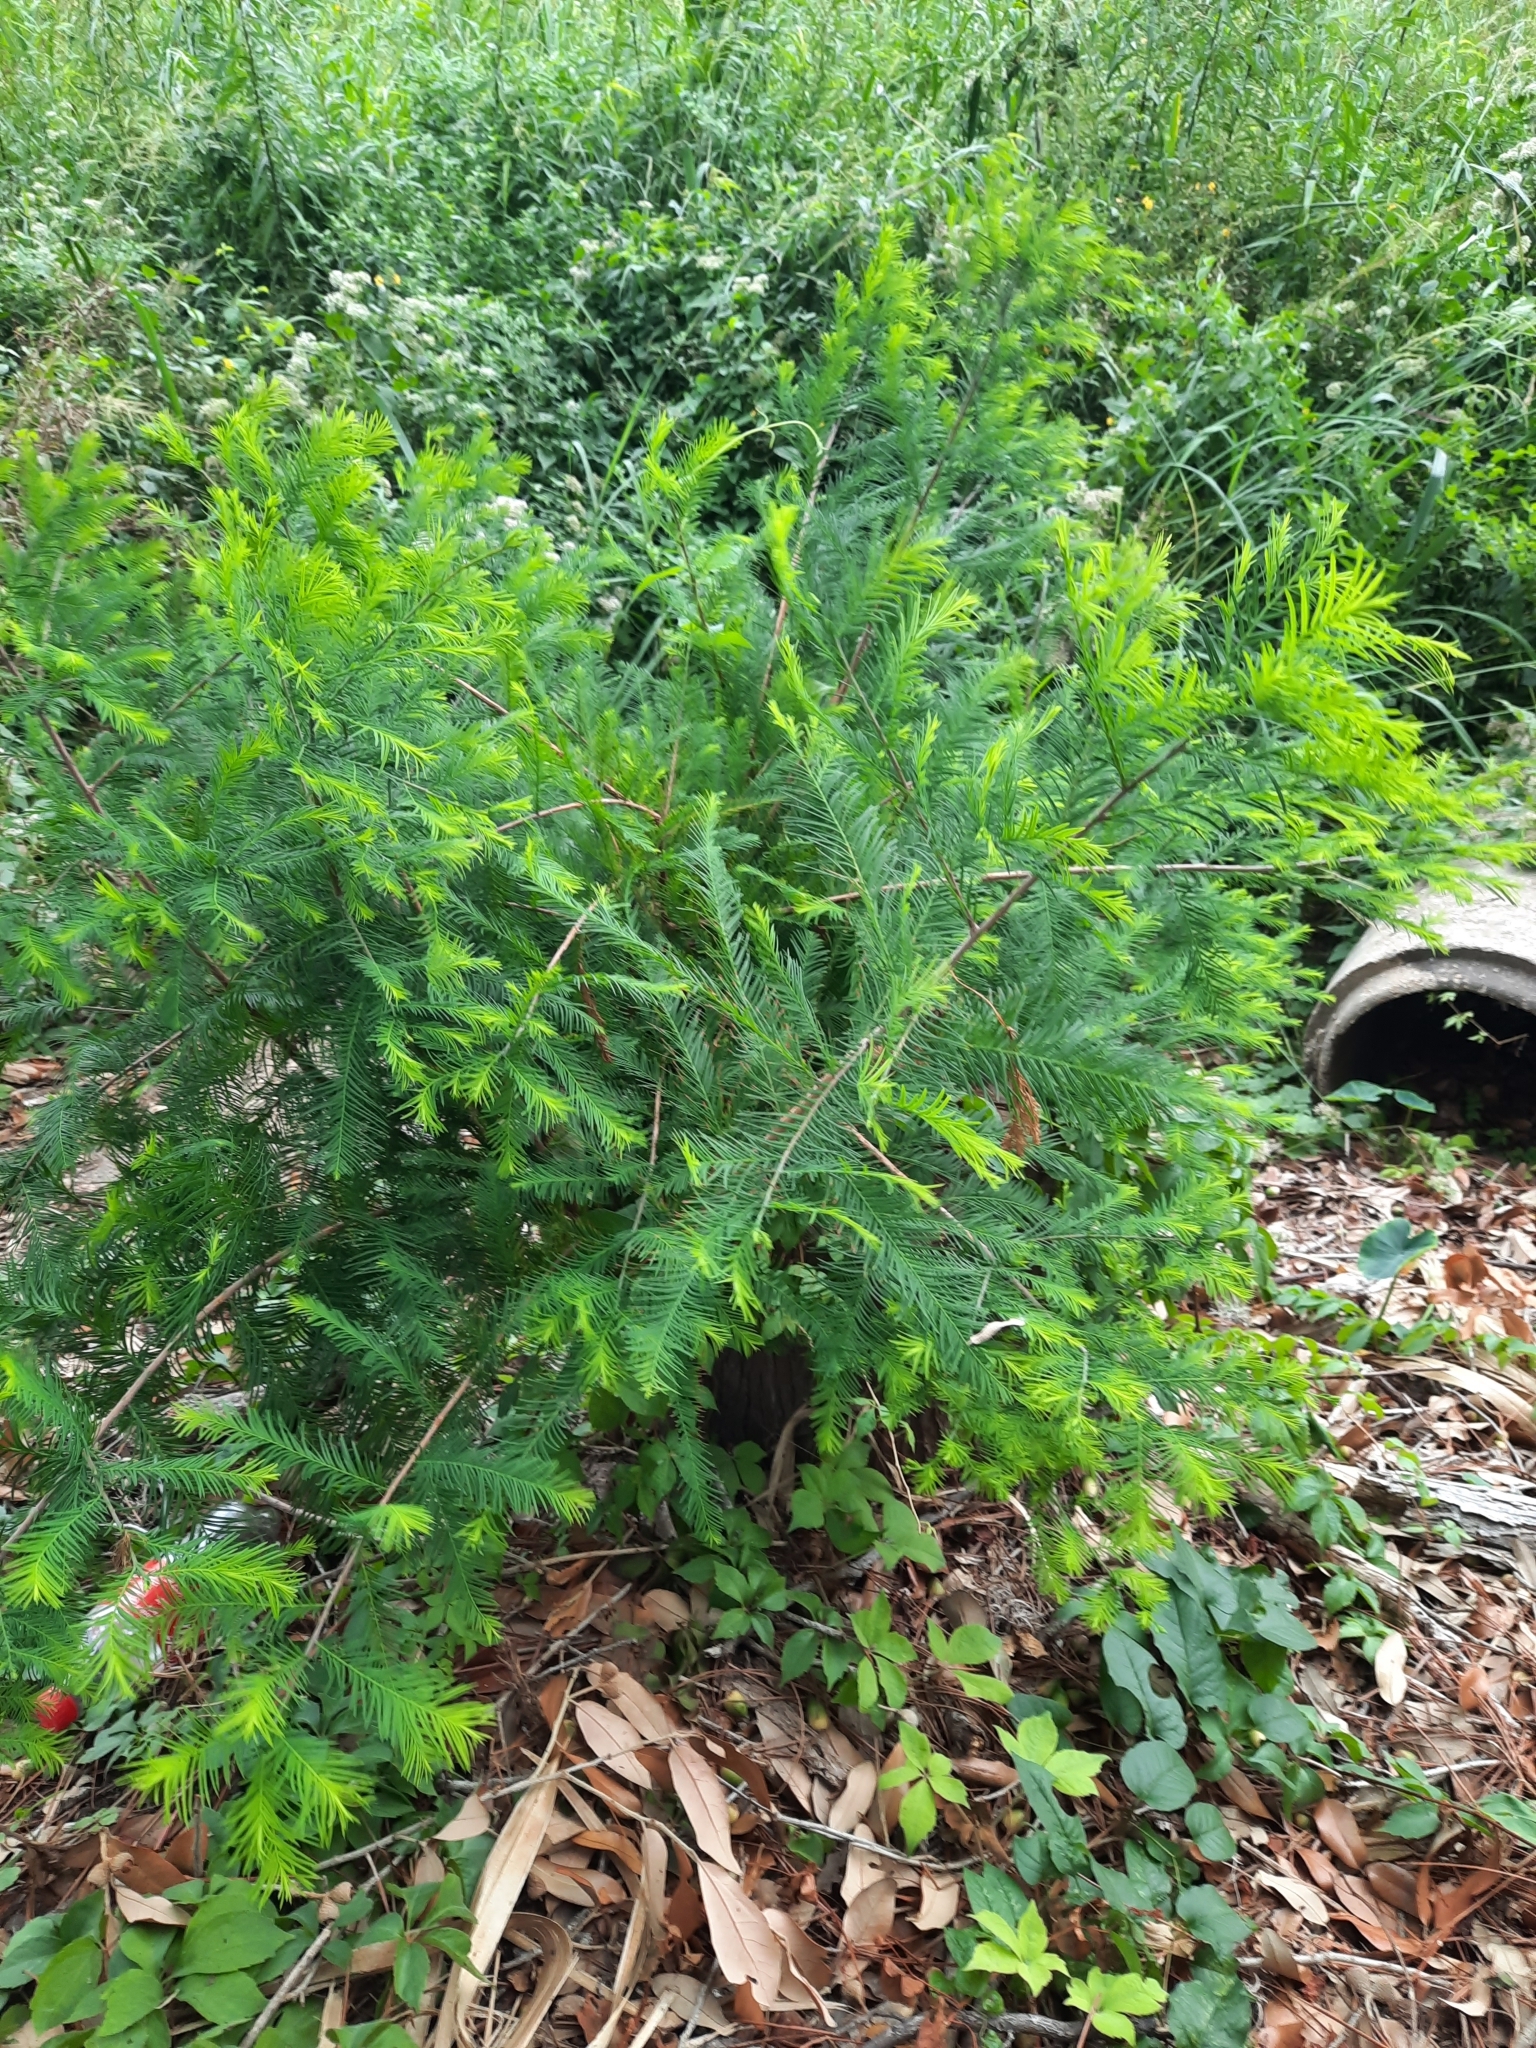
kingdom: Plantae
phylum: Tracheophyta
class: Pinopsida
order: Pinales
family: Cupressaceae
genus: Taxodium
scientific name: Taxodium distichum
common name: Bald cypress
